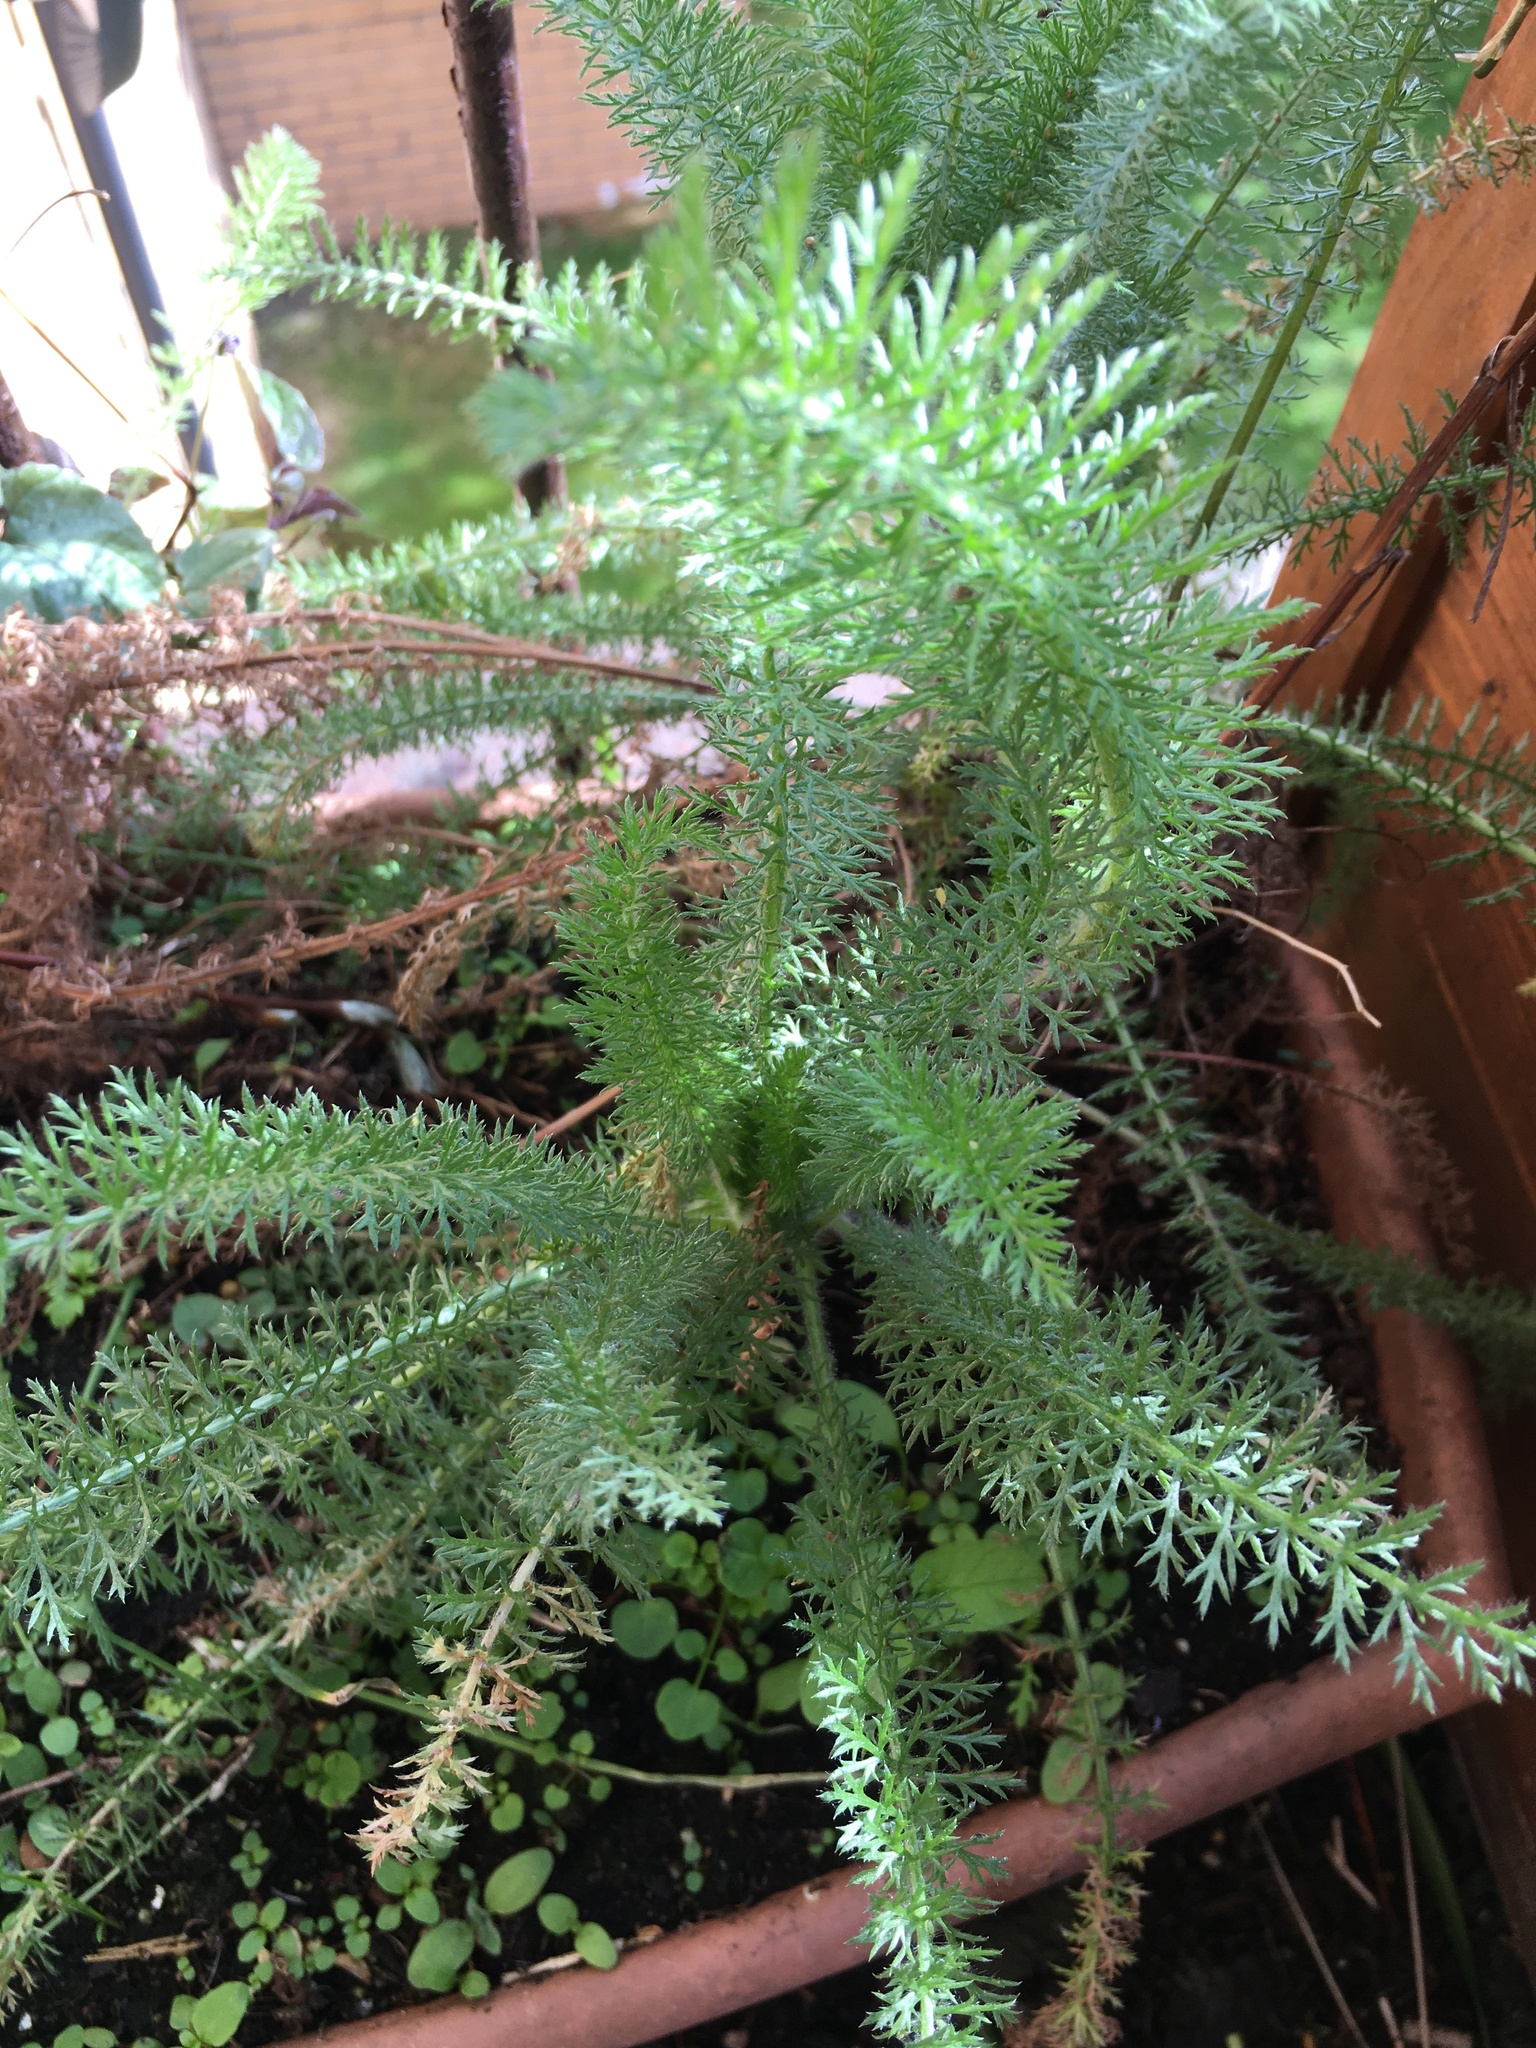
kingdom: Plantae
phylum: Tracheophyta
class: Magnoliopsida
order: Asterales
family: Asteraceae
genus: Achillea
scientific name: Achillea millefolium
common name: Yarrow
